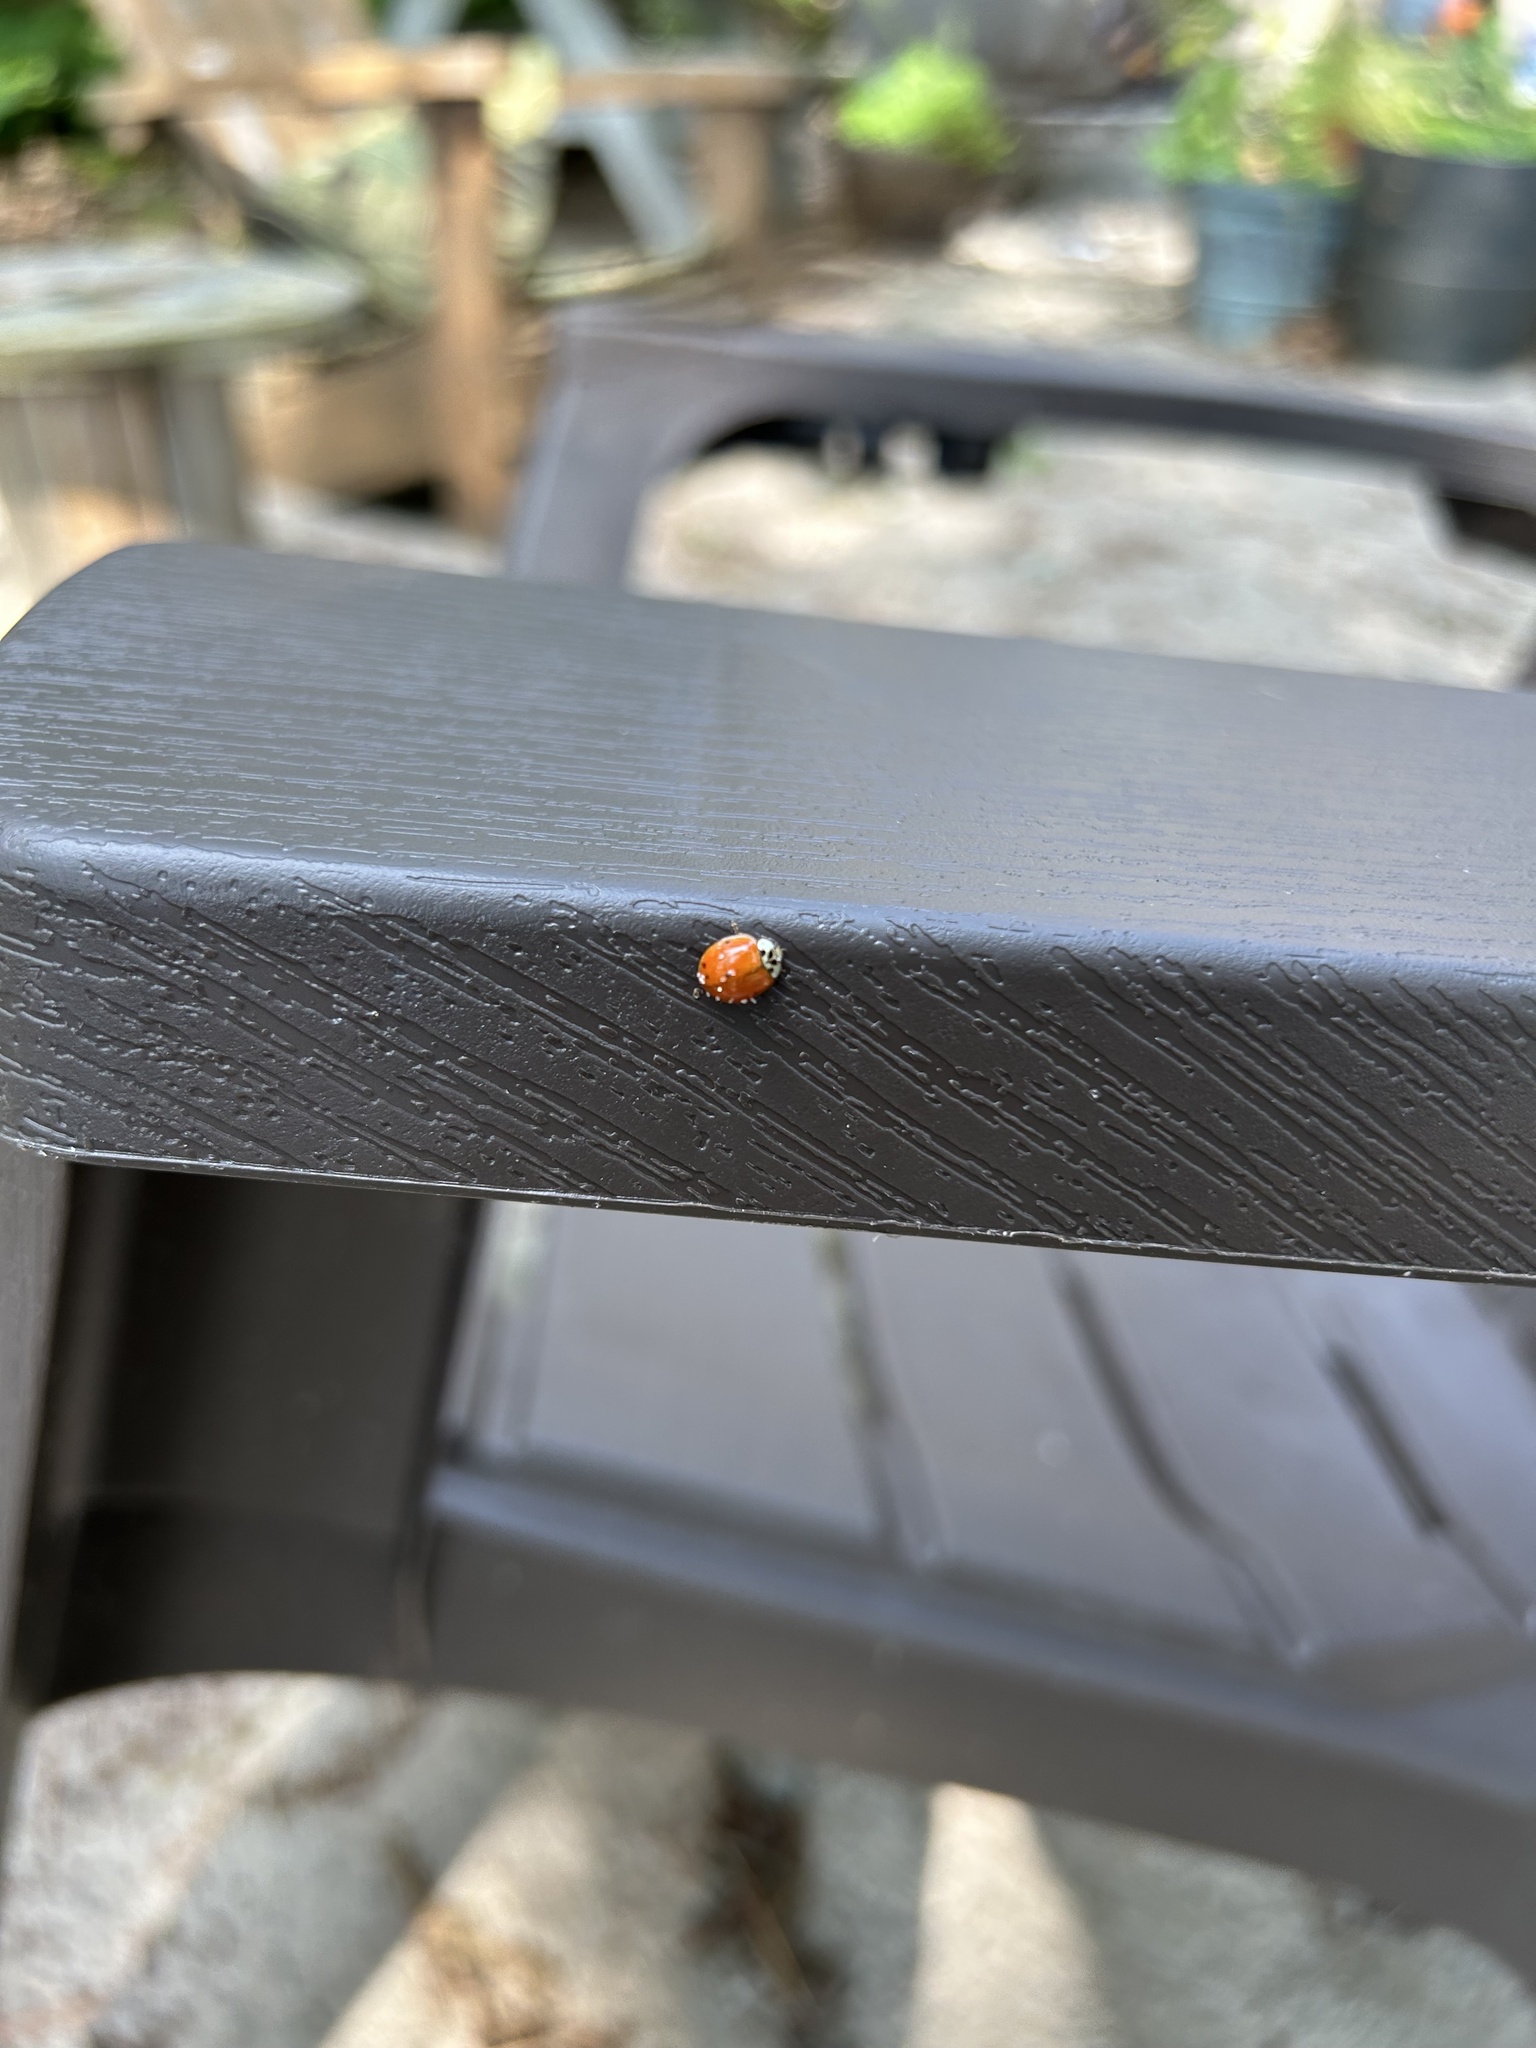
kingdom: Animalia
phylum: Arthropoda
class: Insecta
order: Coleoptera
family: Coccinellidae
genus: Harmonia
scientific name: Harmonia axyridis
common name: Harlequin ladybird
